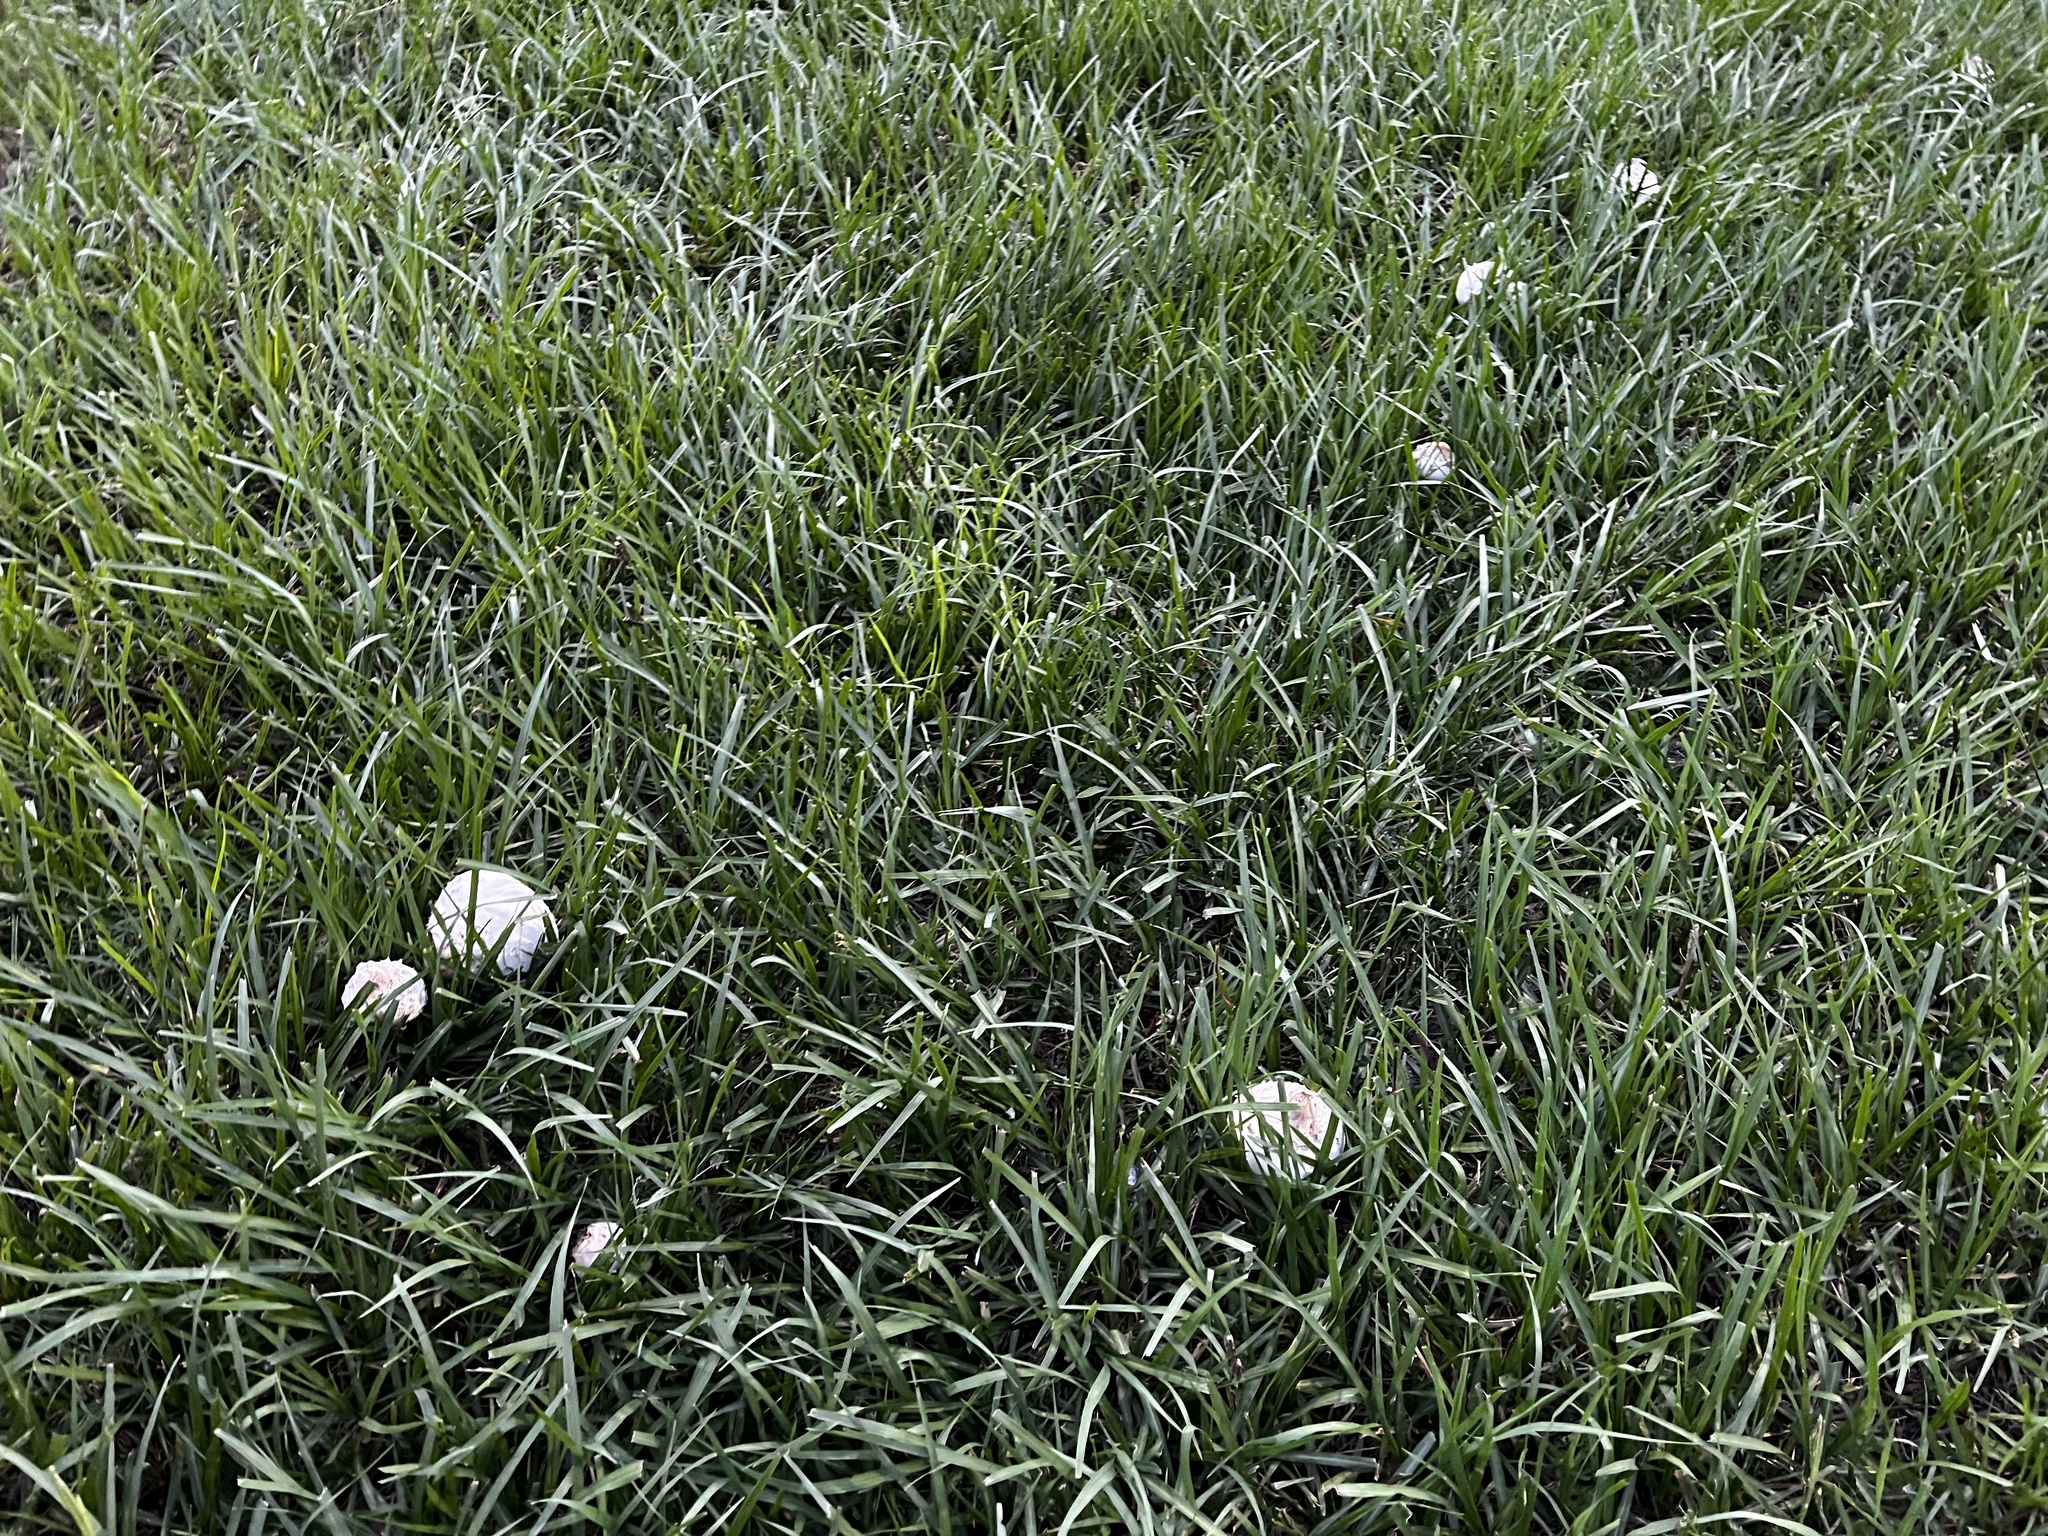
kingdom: Fungi
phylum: Basidiomycota
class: Agaricomycetes
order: Agaricales
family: Agaricaceae
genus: Chlorophyllum
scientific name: Chlorophyllum molybdites
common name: False parasol
